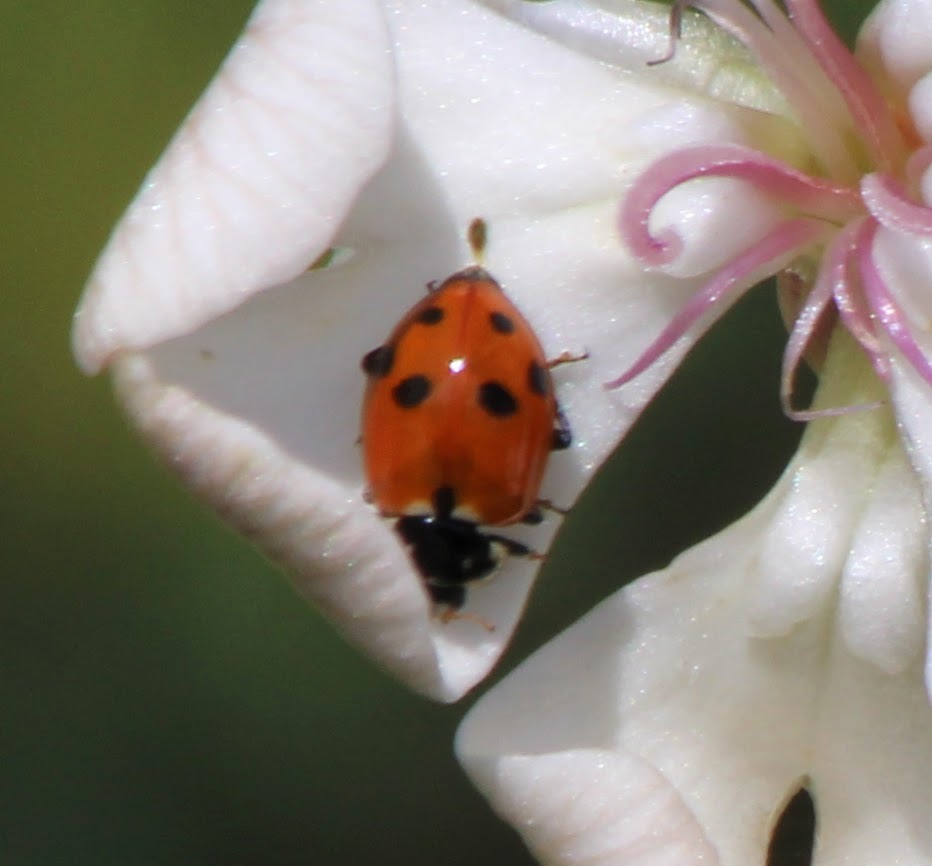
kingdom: Animalia
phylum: Arthropoda
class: Insecta
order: Coleoptera
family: Coccinellidae
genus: Hippodamia
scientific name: Hippodamia variegata
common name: Ladybird beetle
